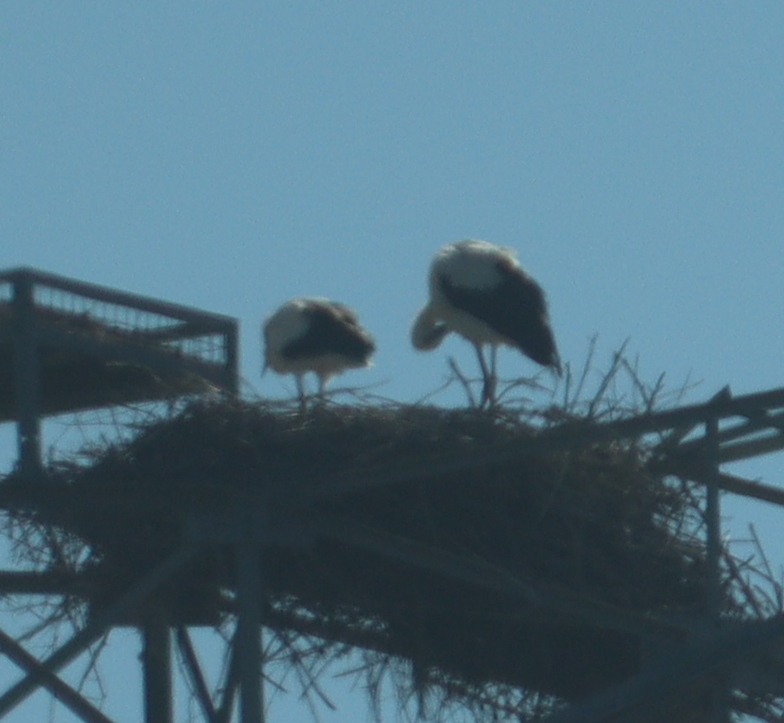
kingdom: Animalia
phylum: Chordata
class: Aves
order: Ciconiiformes
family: Ciconiidae
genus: Ciconia
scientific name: Ciconia ciconia
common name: White stork
